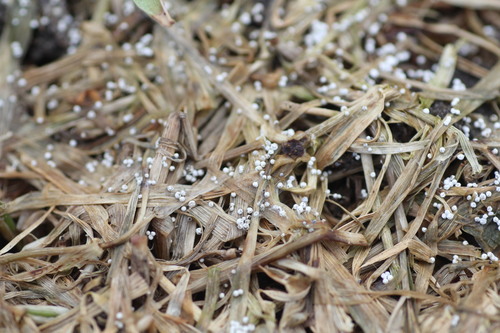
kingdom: Fungi
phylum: Basidiomycota
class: Agaricomycetes
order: Agaricales
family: Typhulaceae
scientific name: Typhulaceae
